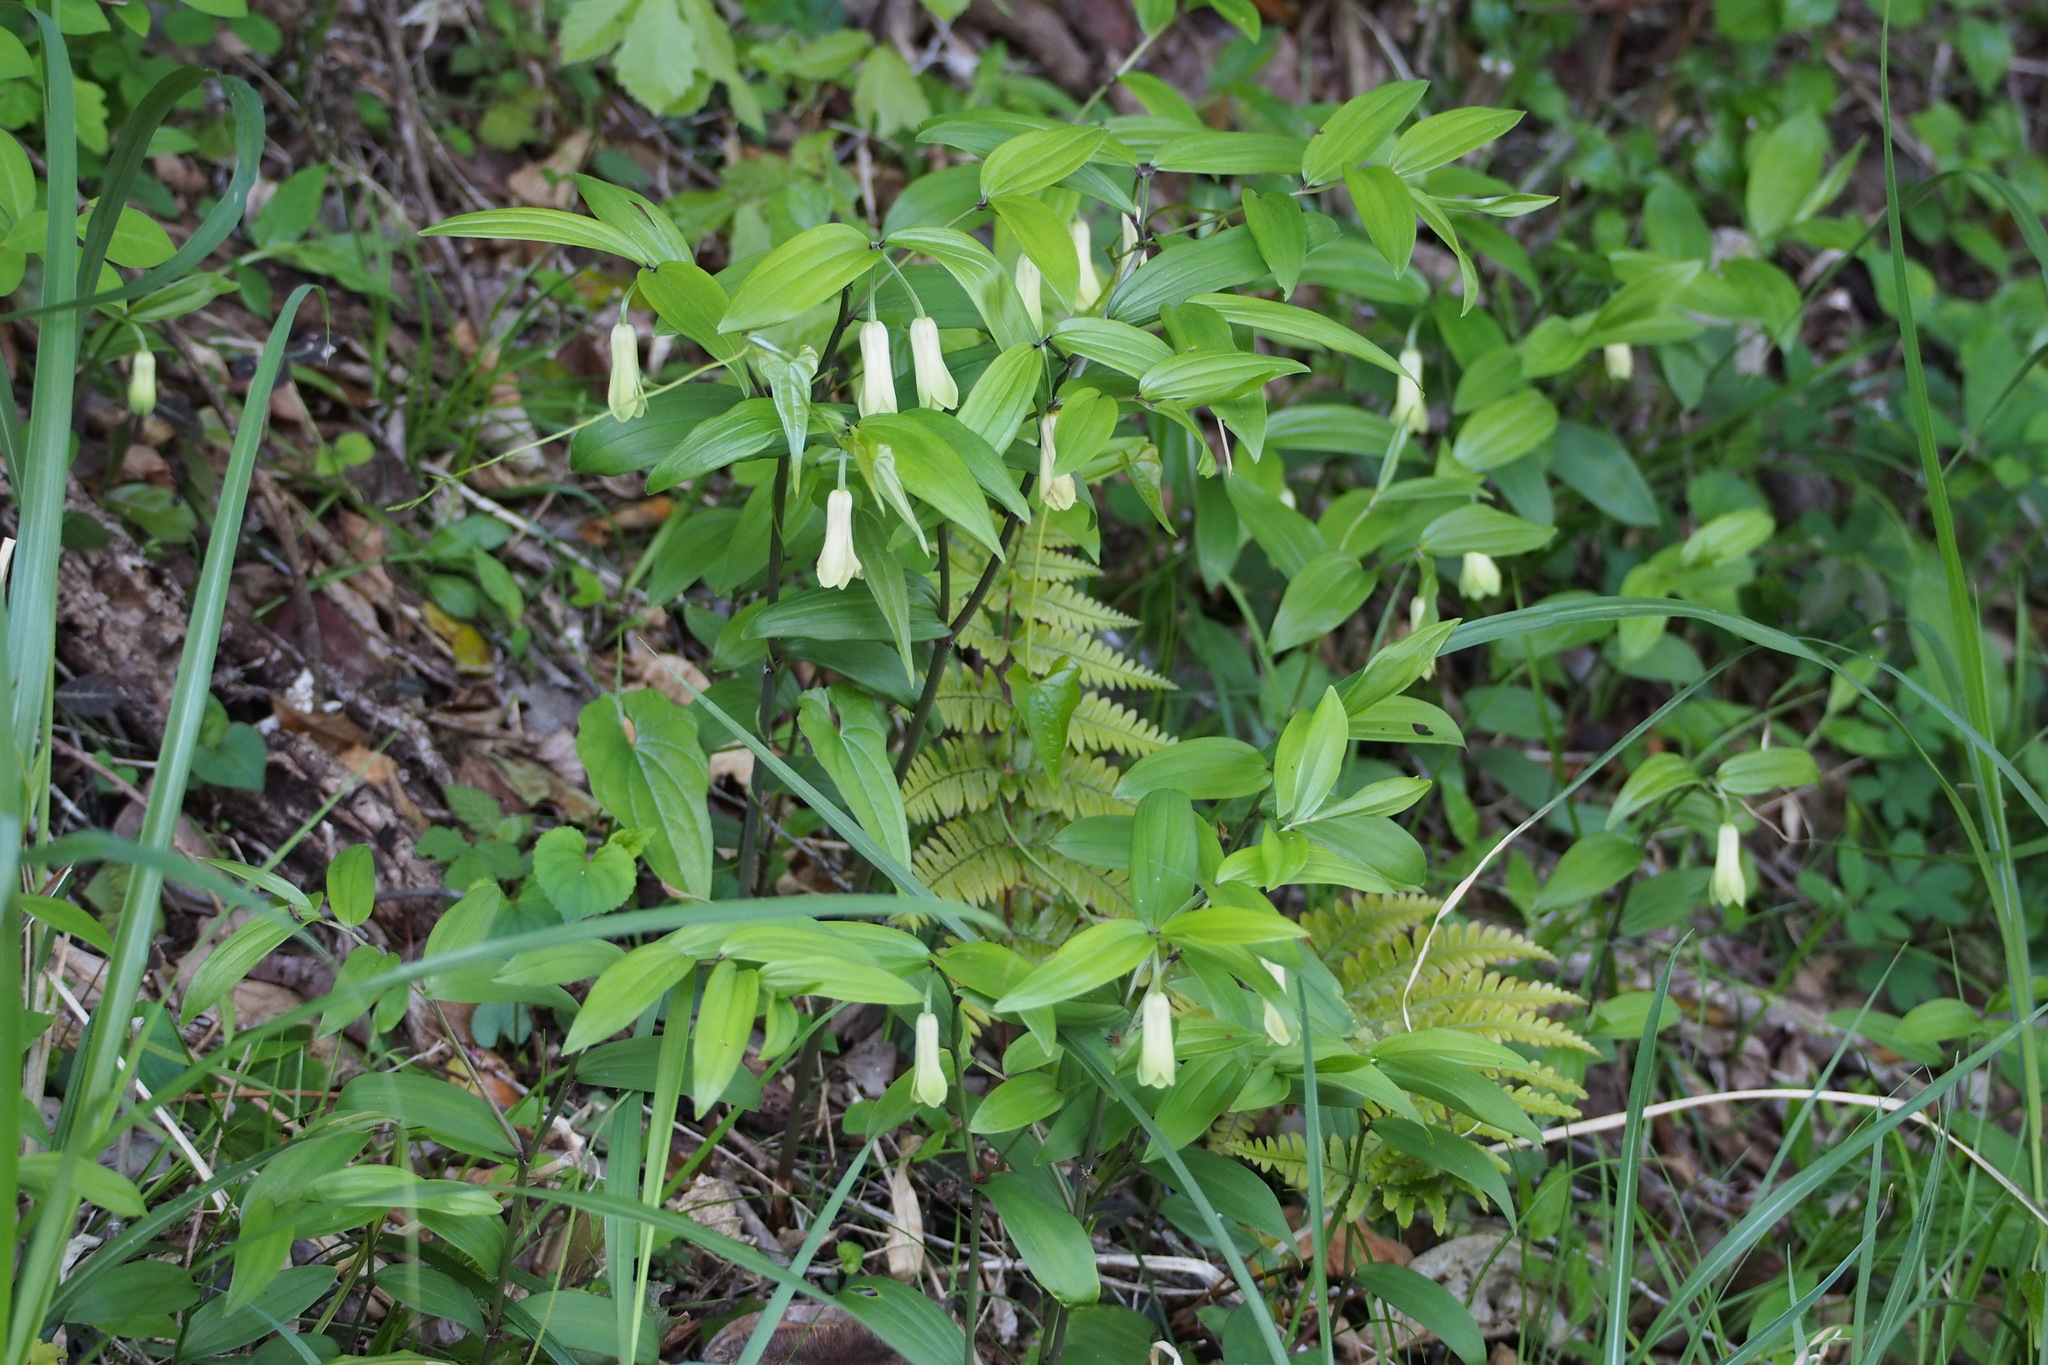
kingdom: Plantae
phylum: Tracheophyta
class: Liliopsida
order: Liliales
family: Colchicaceae
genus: Disporum
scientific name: Disporum sessile
